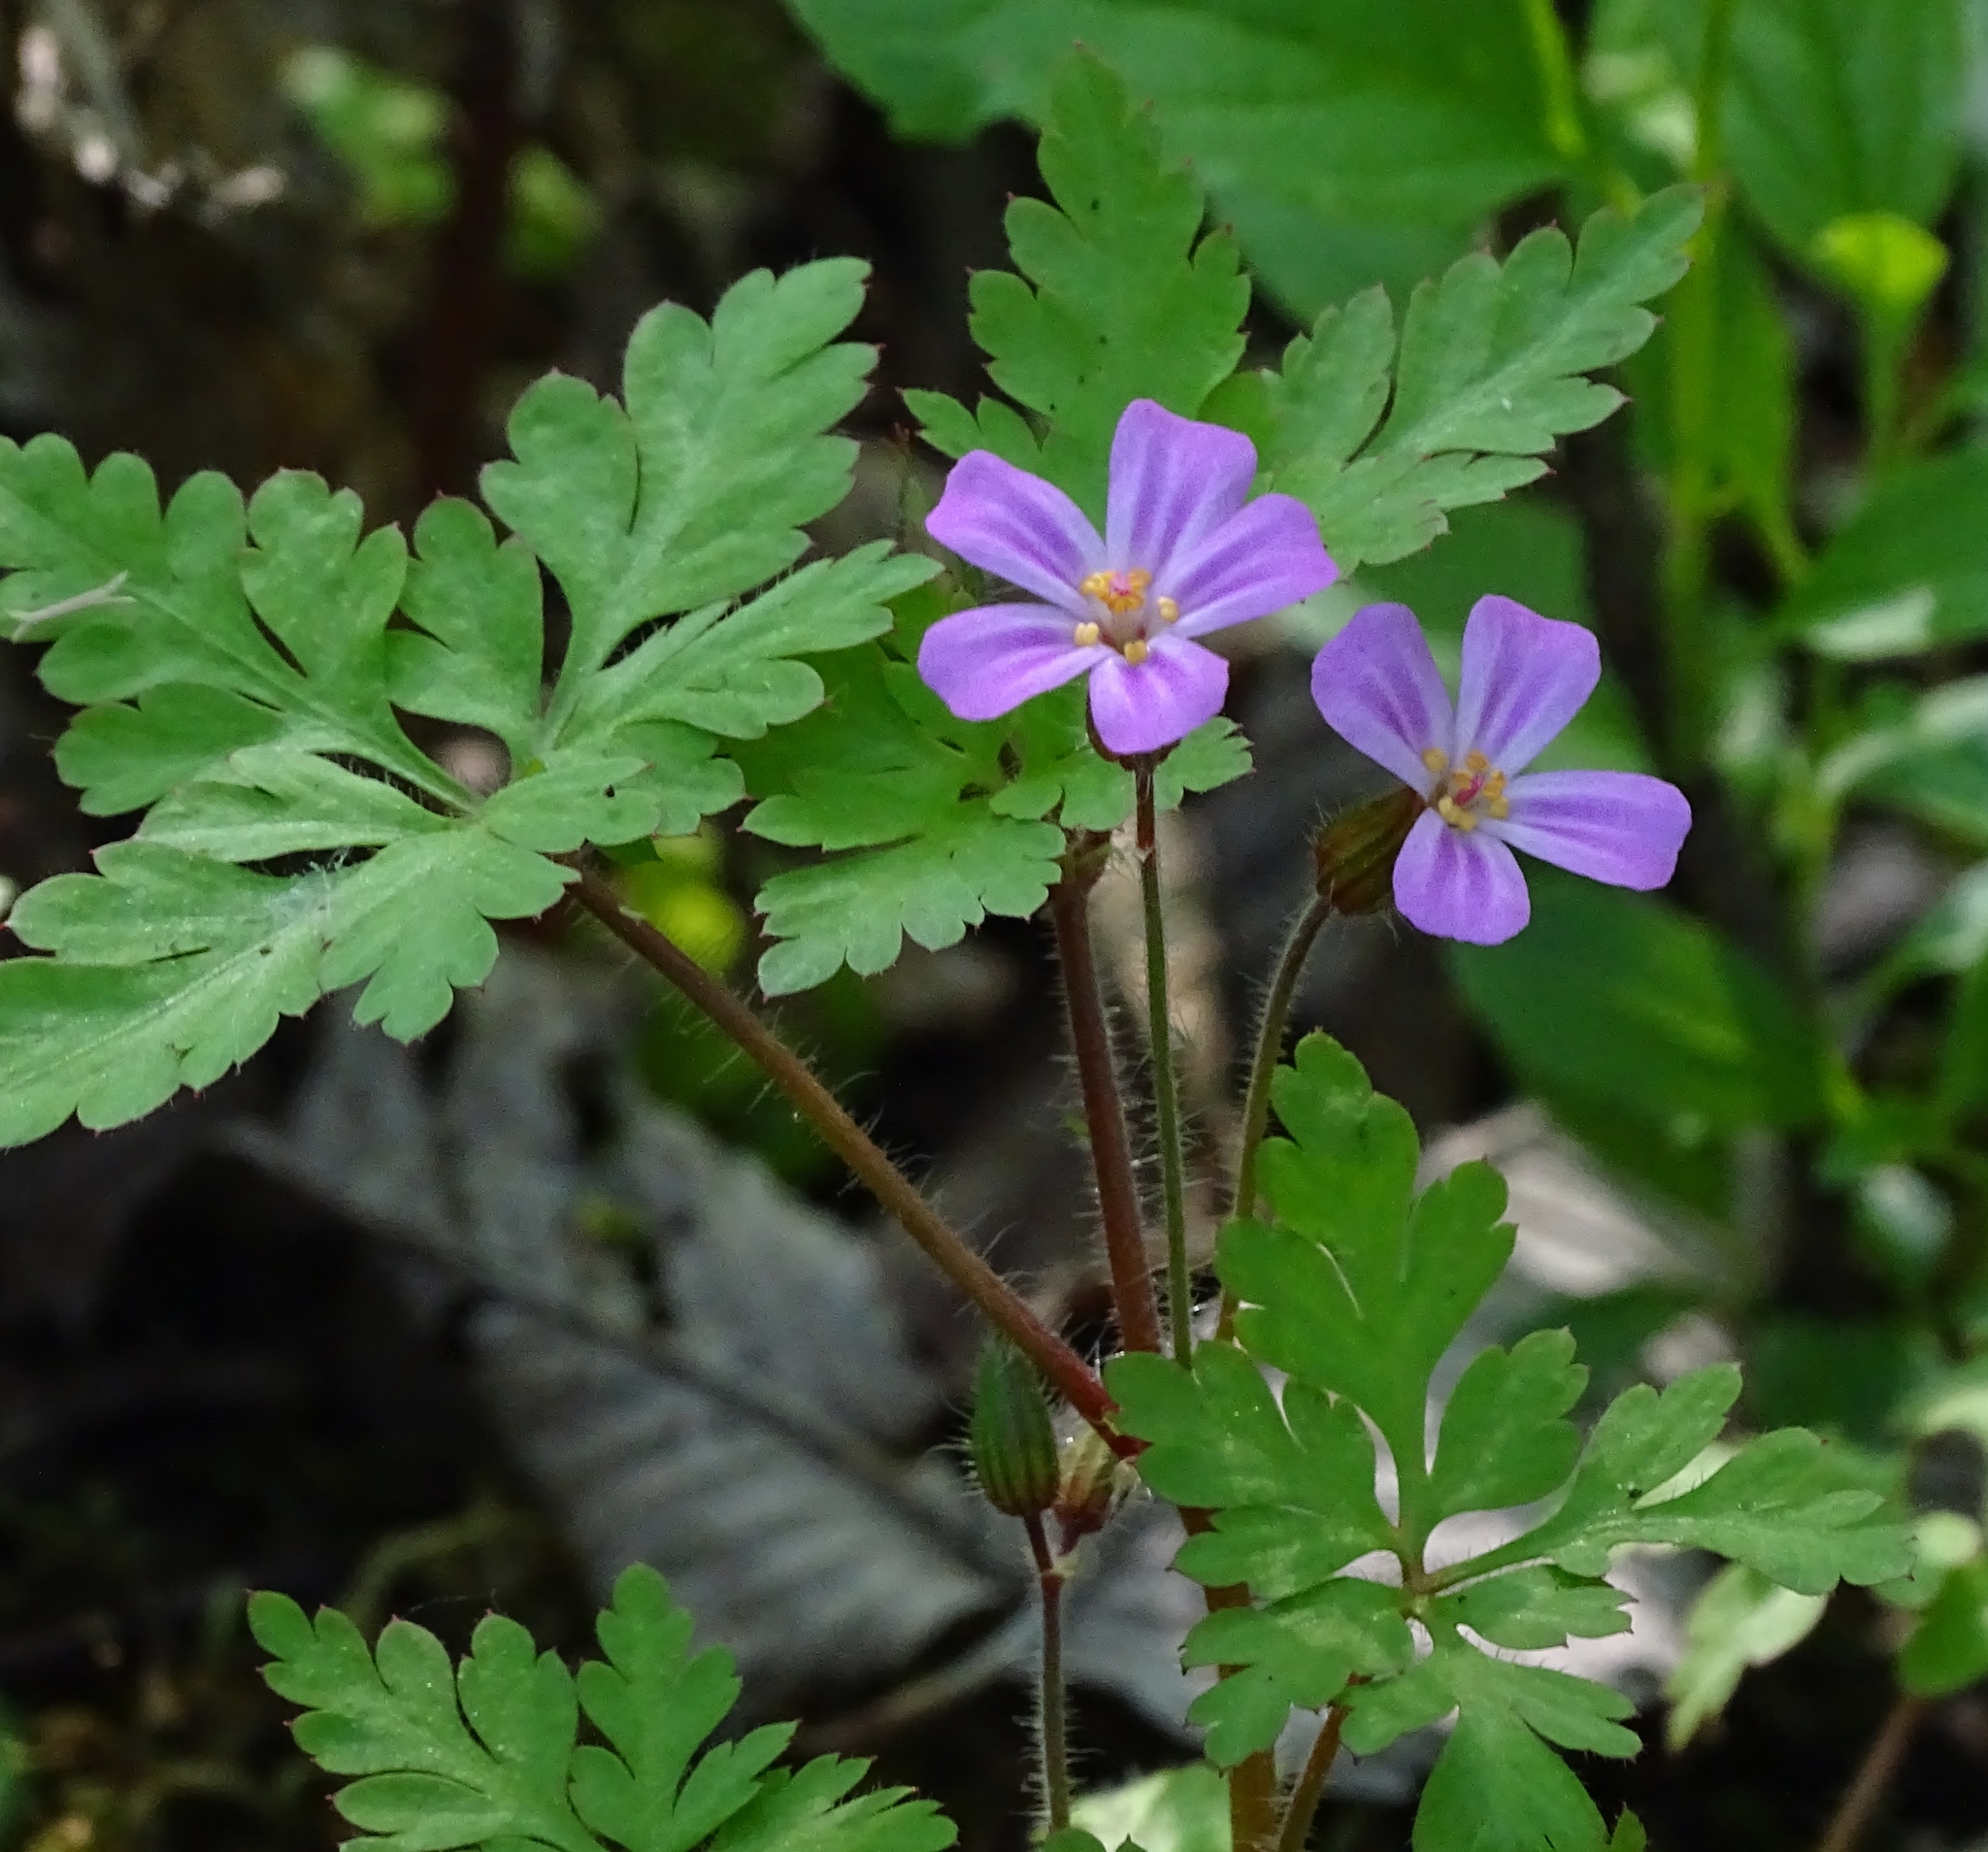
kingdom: Plantae
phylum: Tracheophyta
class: Magnoliopsida
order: Geraniales
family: Geraniaceae
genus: Geranium
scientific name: Geranium robertianum
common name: Herb-robert
